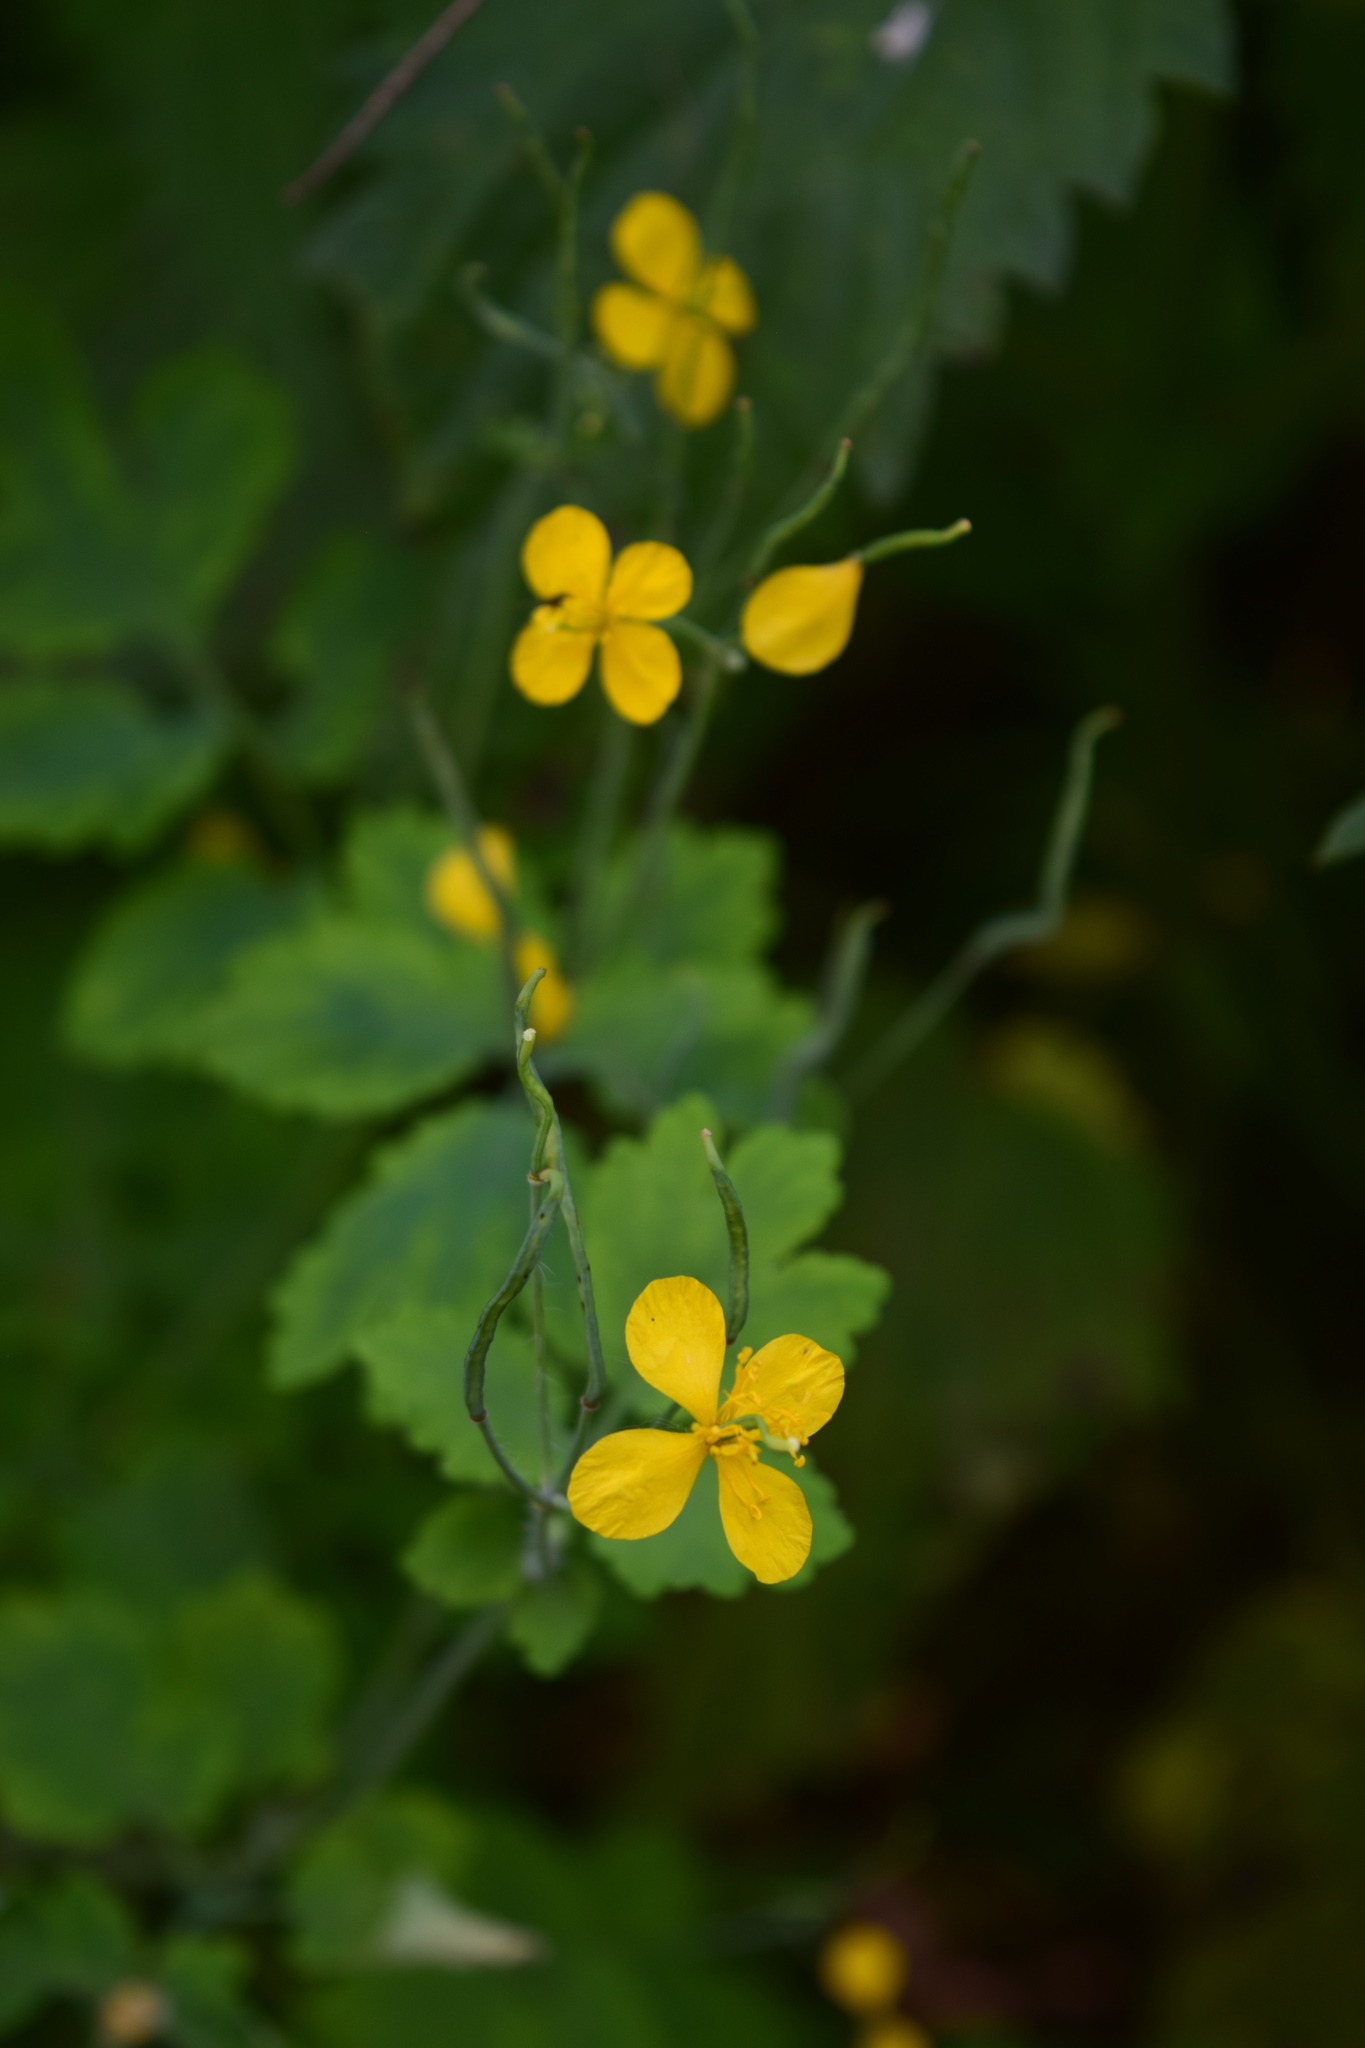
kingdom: Plantae
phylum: Tracheophyta
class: Magnoliopsida
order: Ranunculales
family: Papaveraceae
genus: Chelidonium
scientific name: Chelidonium majus
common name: Greater celandine
